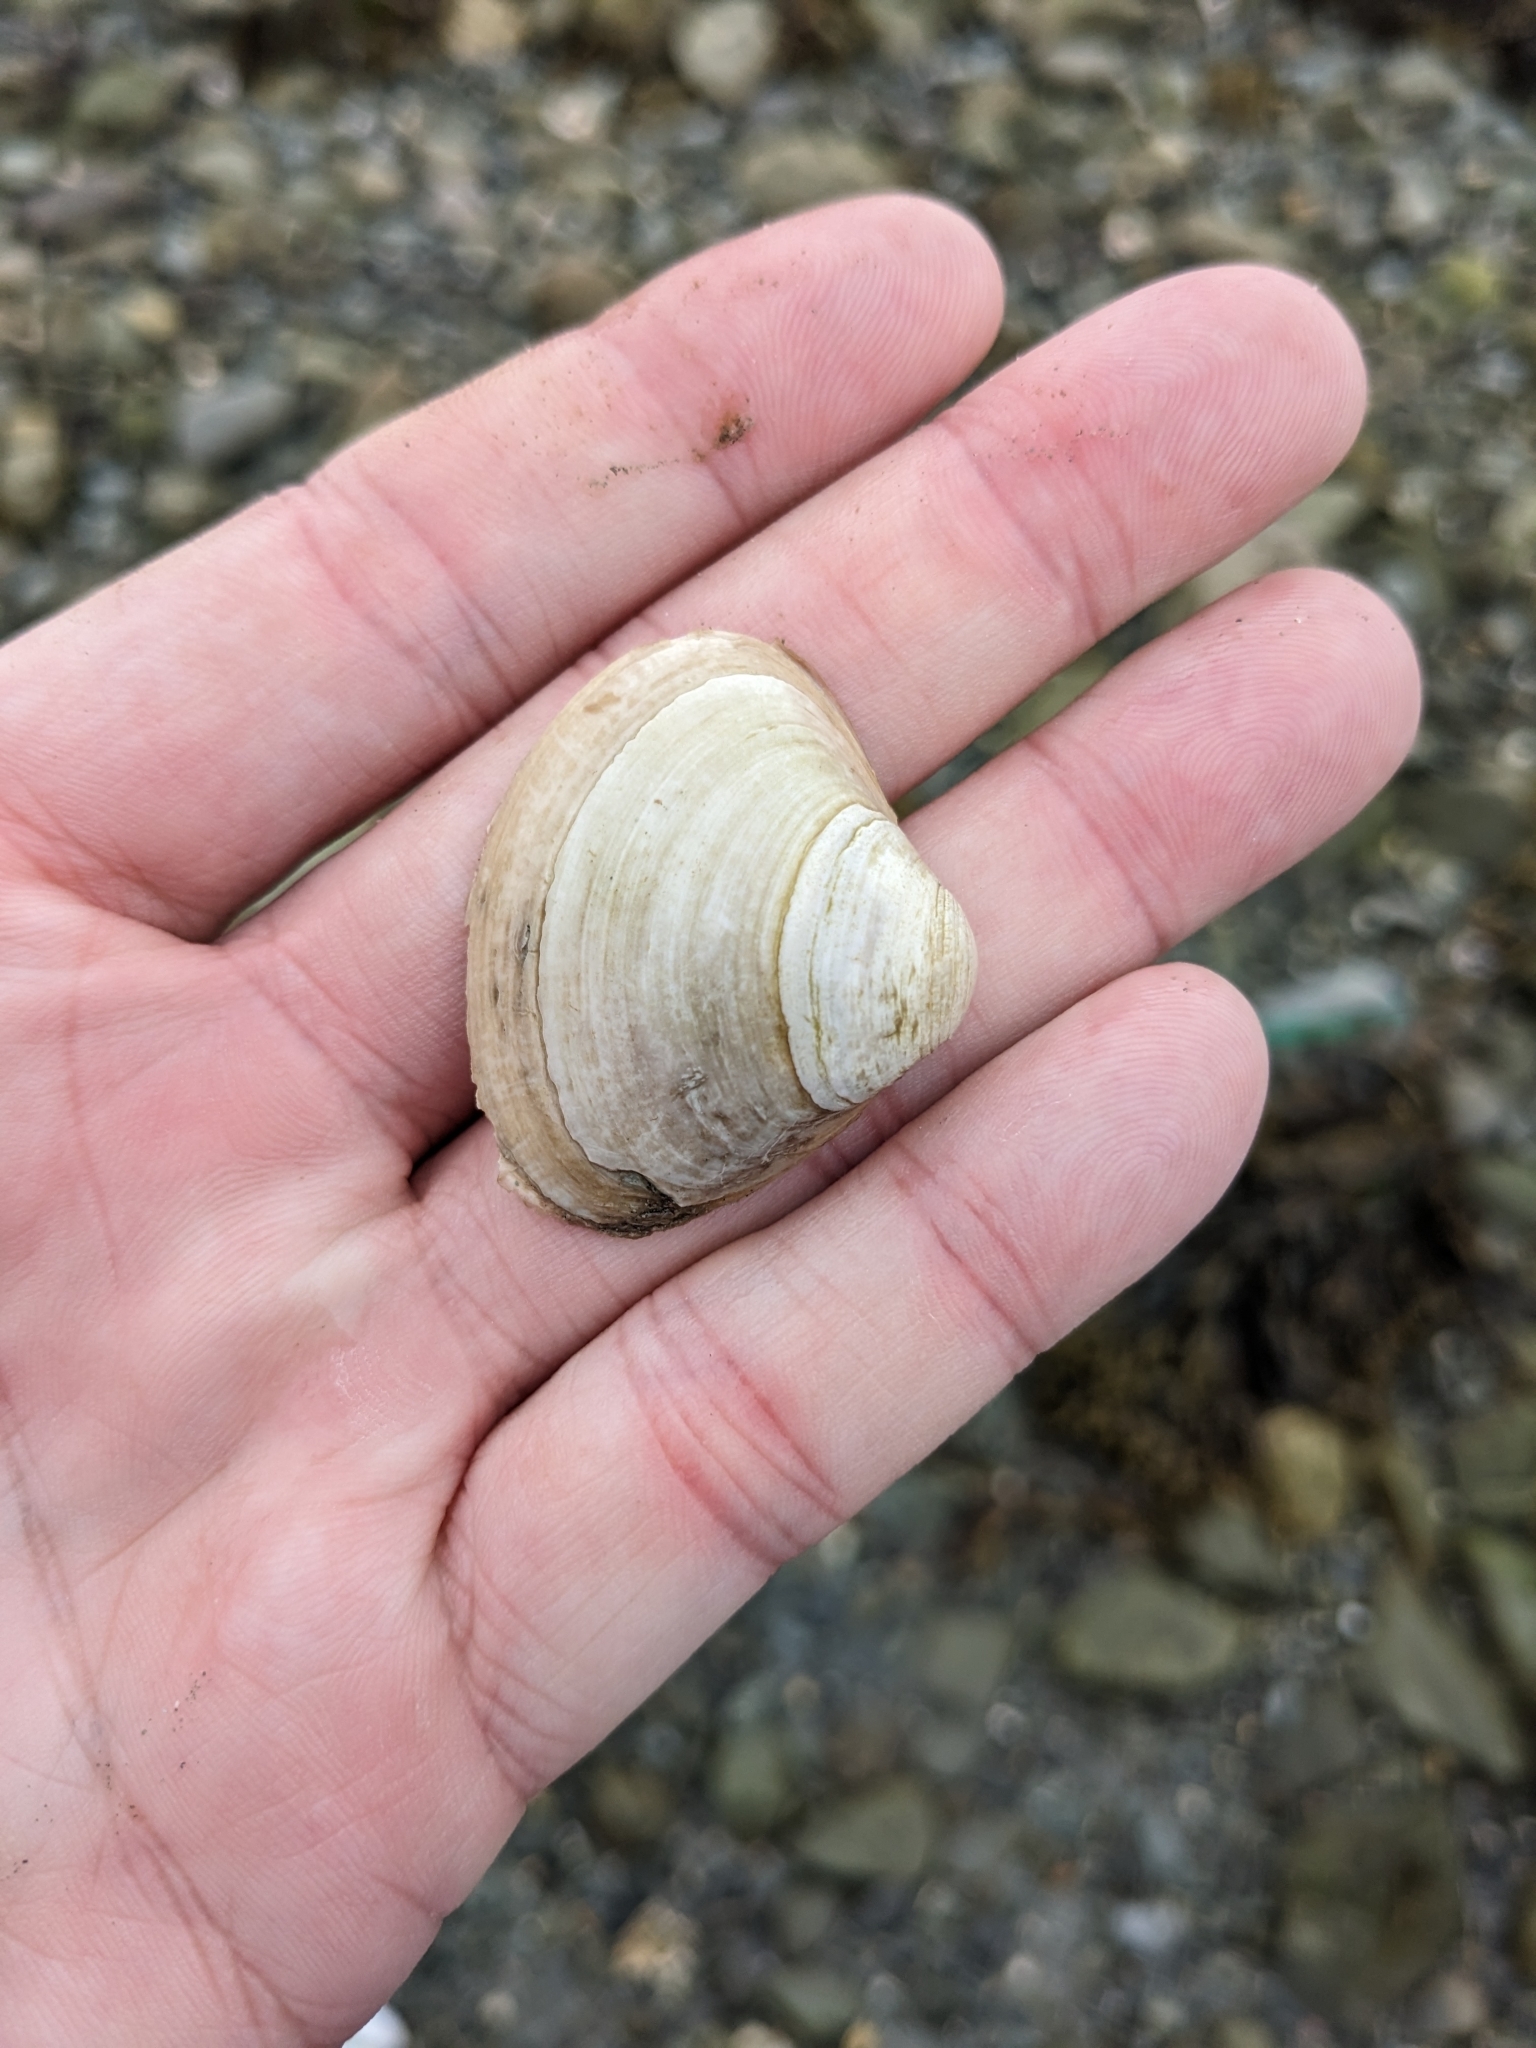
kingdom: Animalia
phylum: Mollusca
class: Bivalvia
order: Venerida
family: Mactridae
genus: Spisula
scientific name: Spisula solidissima
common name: Atlantic surf clam
